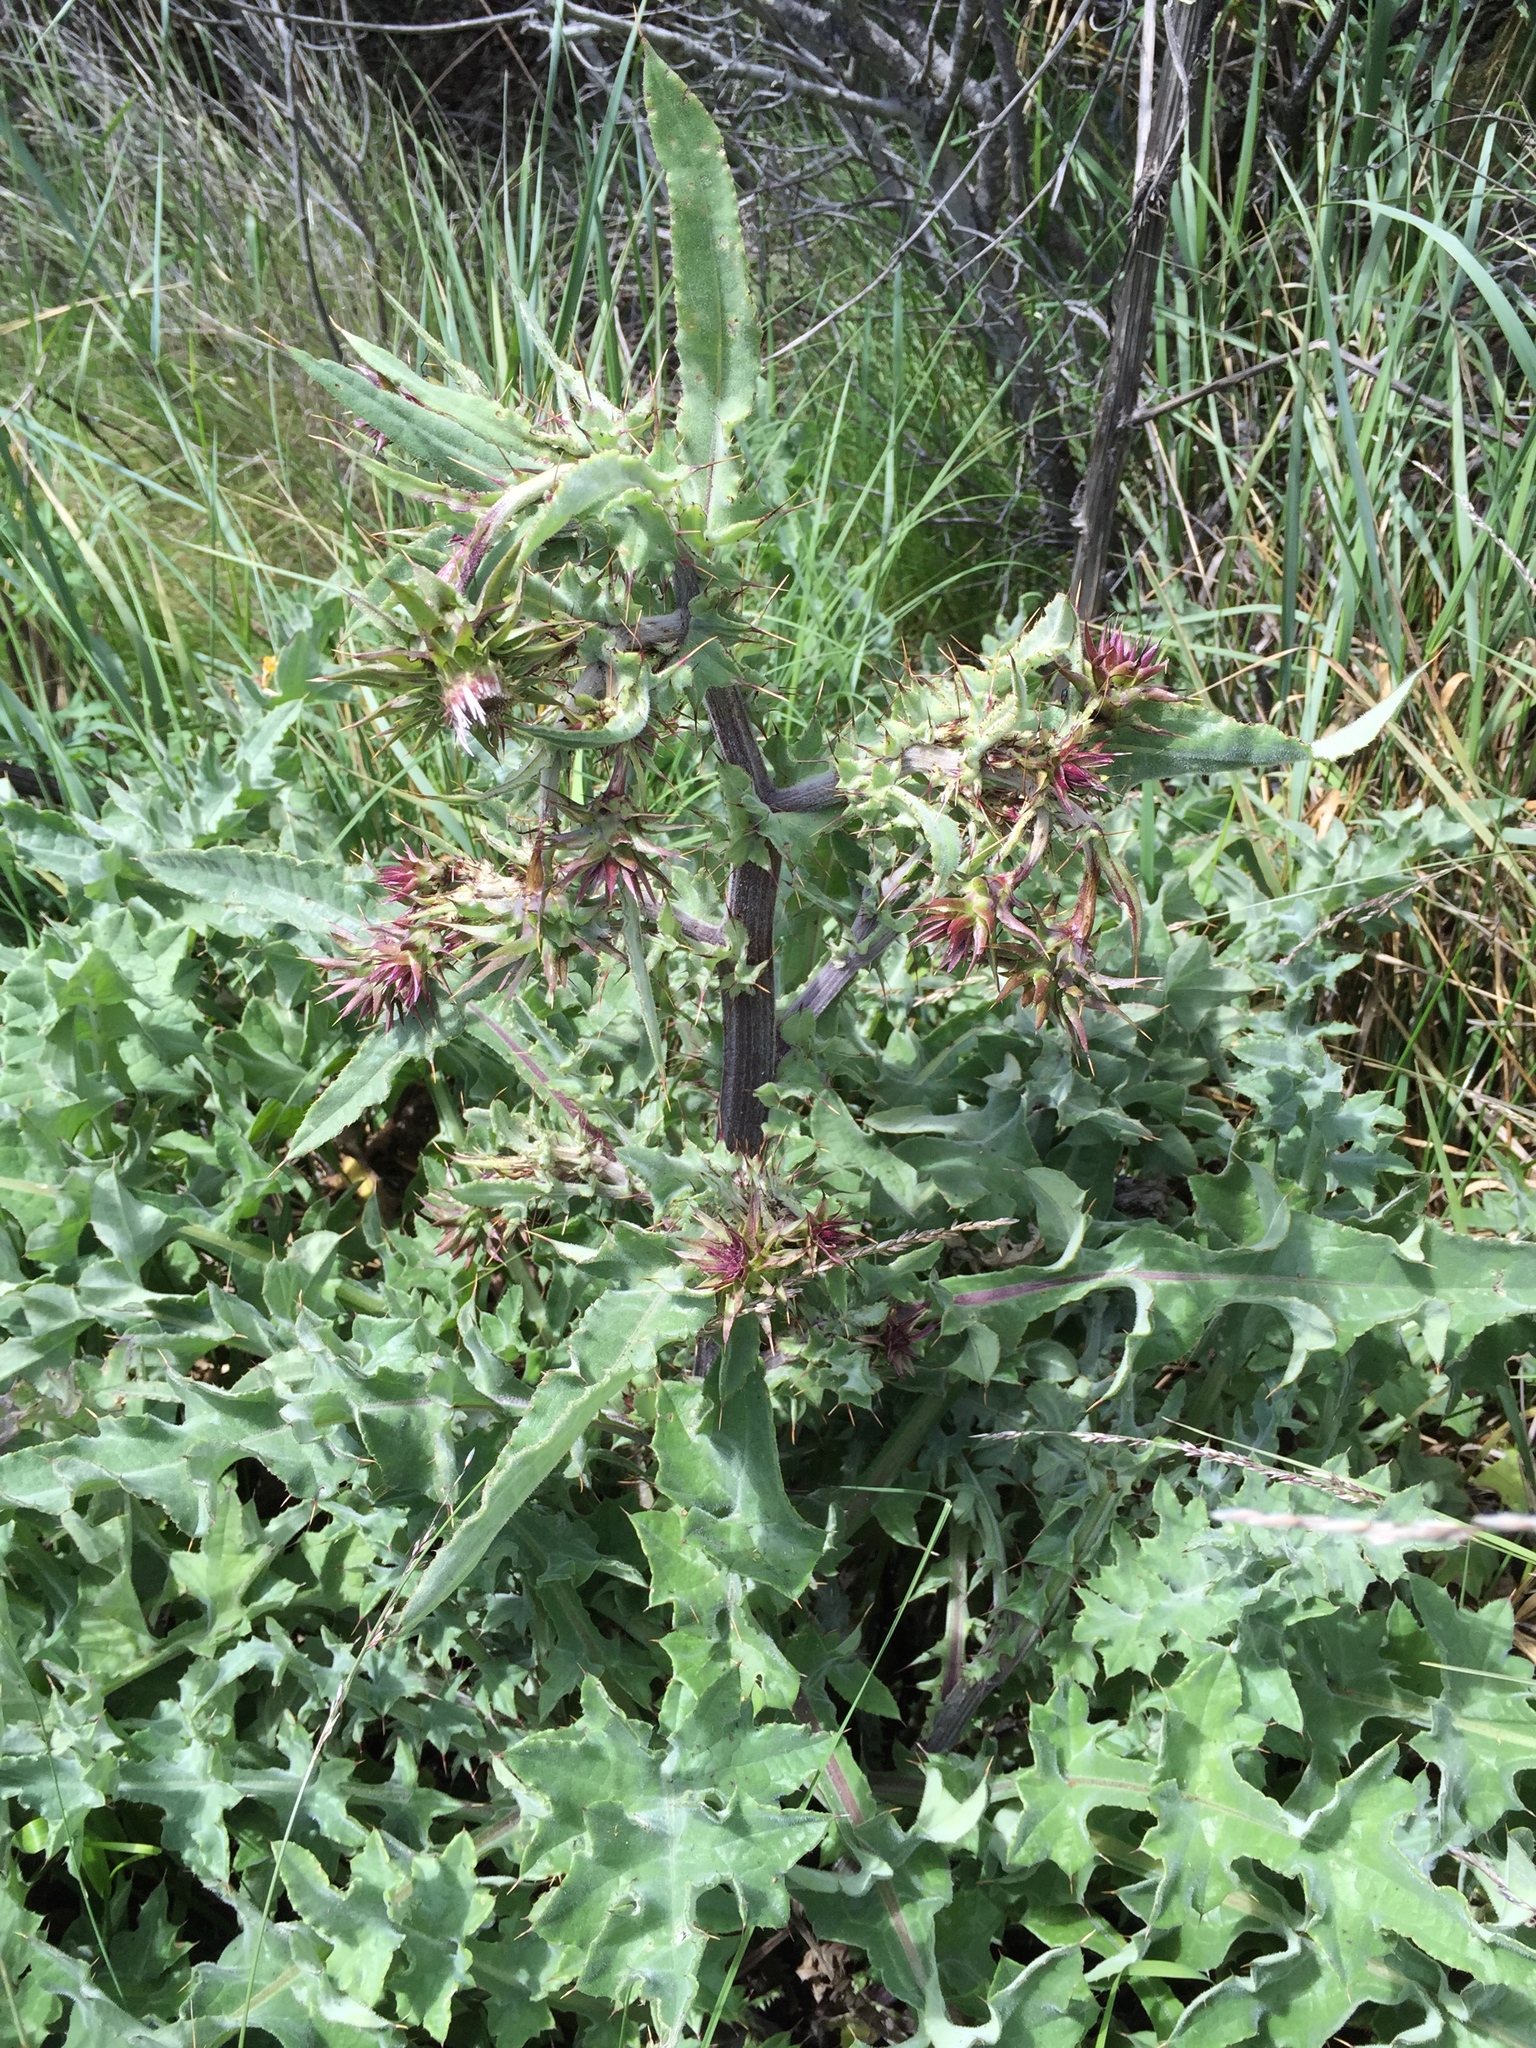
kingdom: Plantae
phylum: Tracheophyta
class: Magnoliopsida
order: Asterales
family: Asteraceae
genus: Cirsium
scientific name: Cirsium fontinale
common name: Fountain thistle
